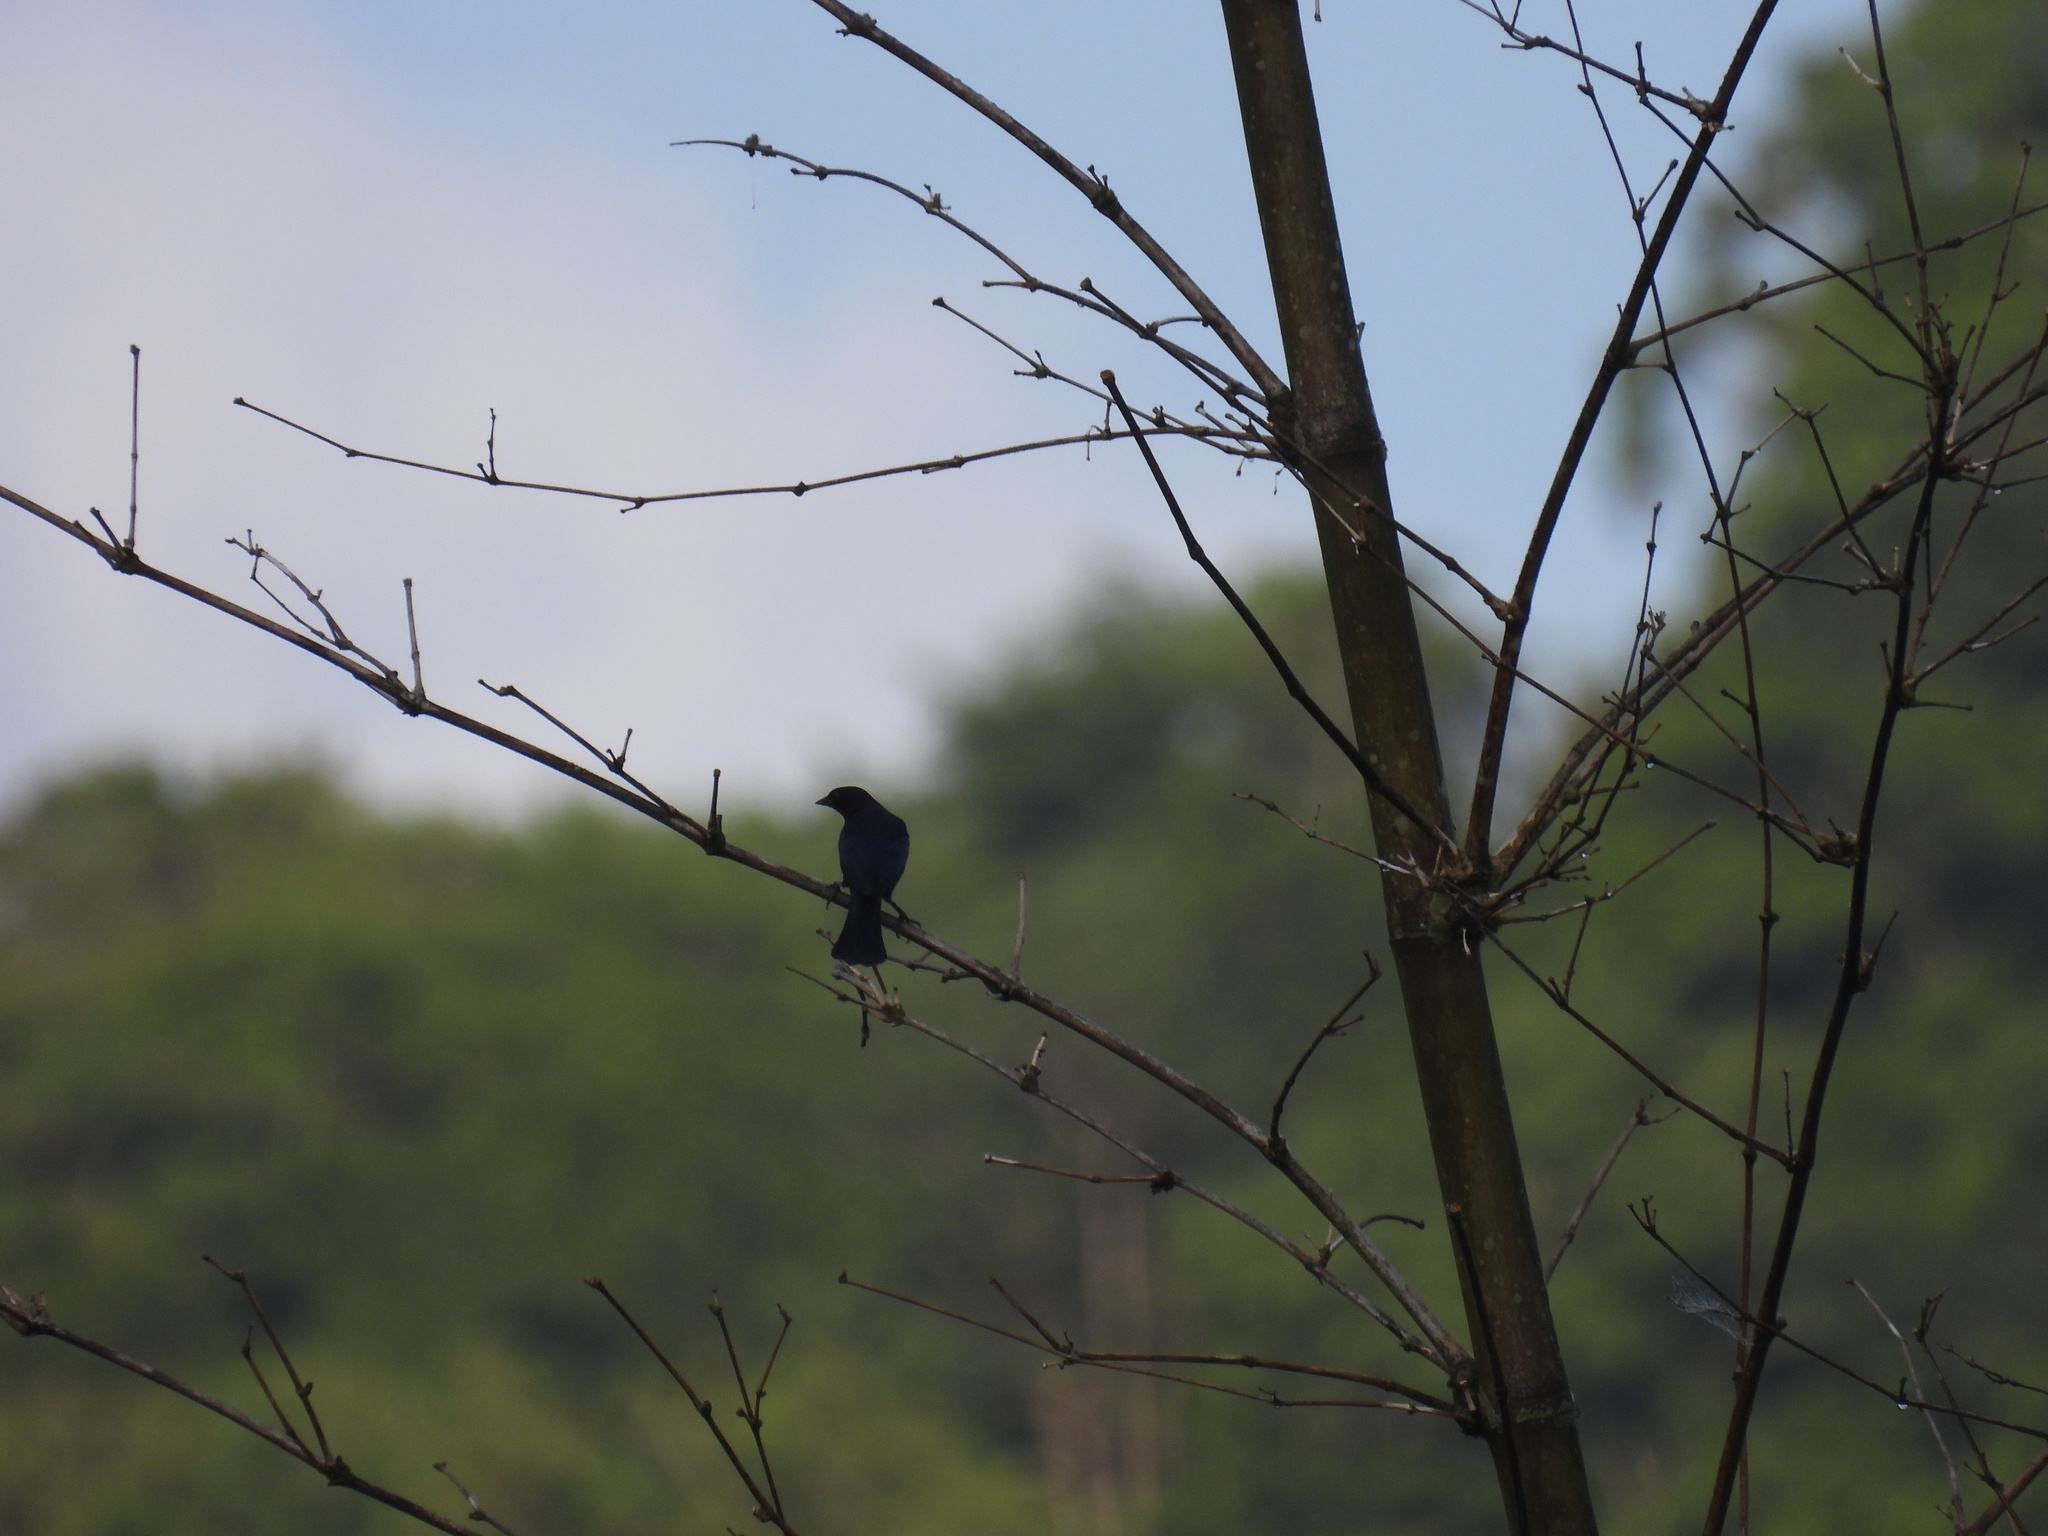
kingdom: Animalia
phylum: Chordata
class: Aves
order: Passeriformes
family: Icteridae
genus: Molothrus
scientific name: Molothrus bonariensis
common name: Shiny cowbird
